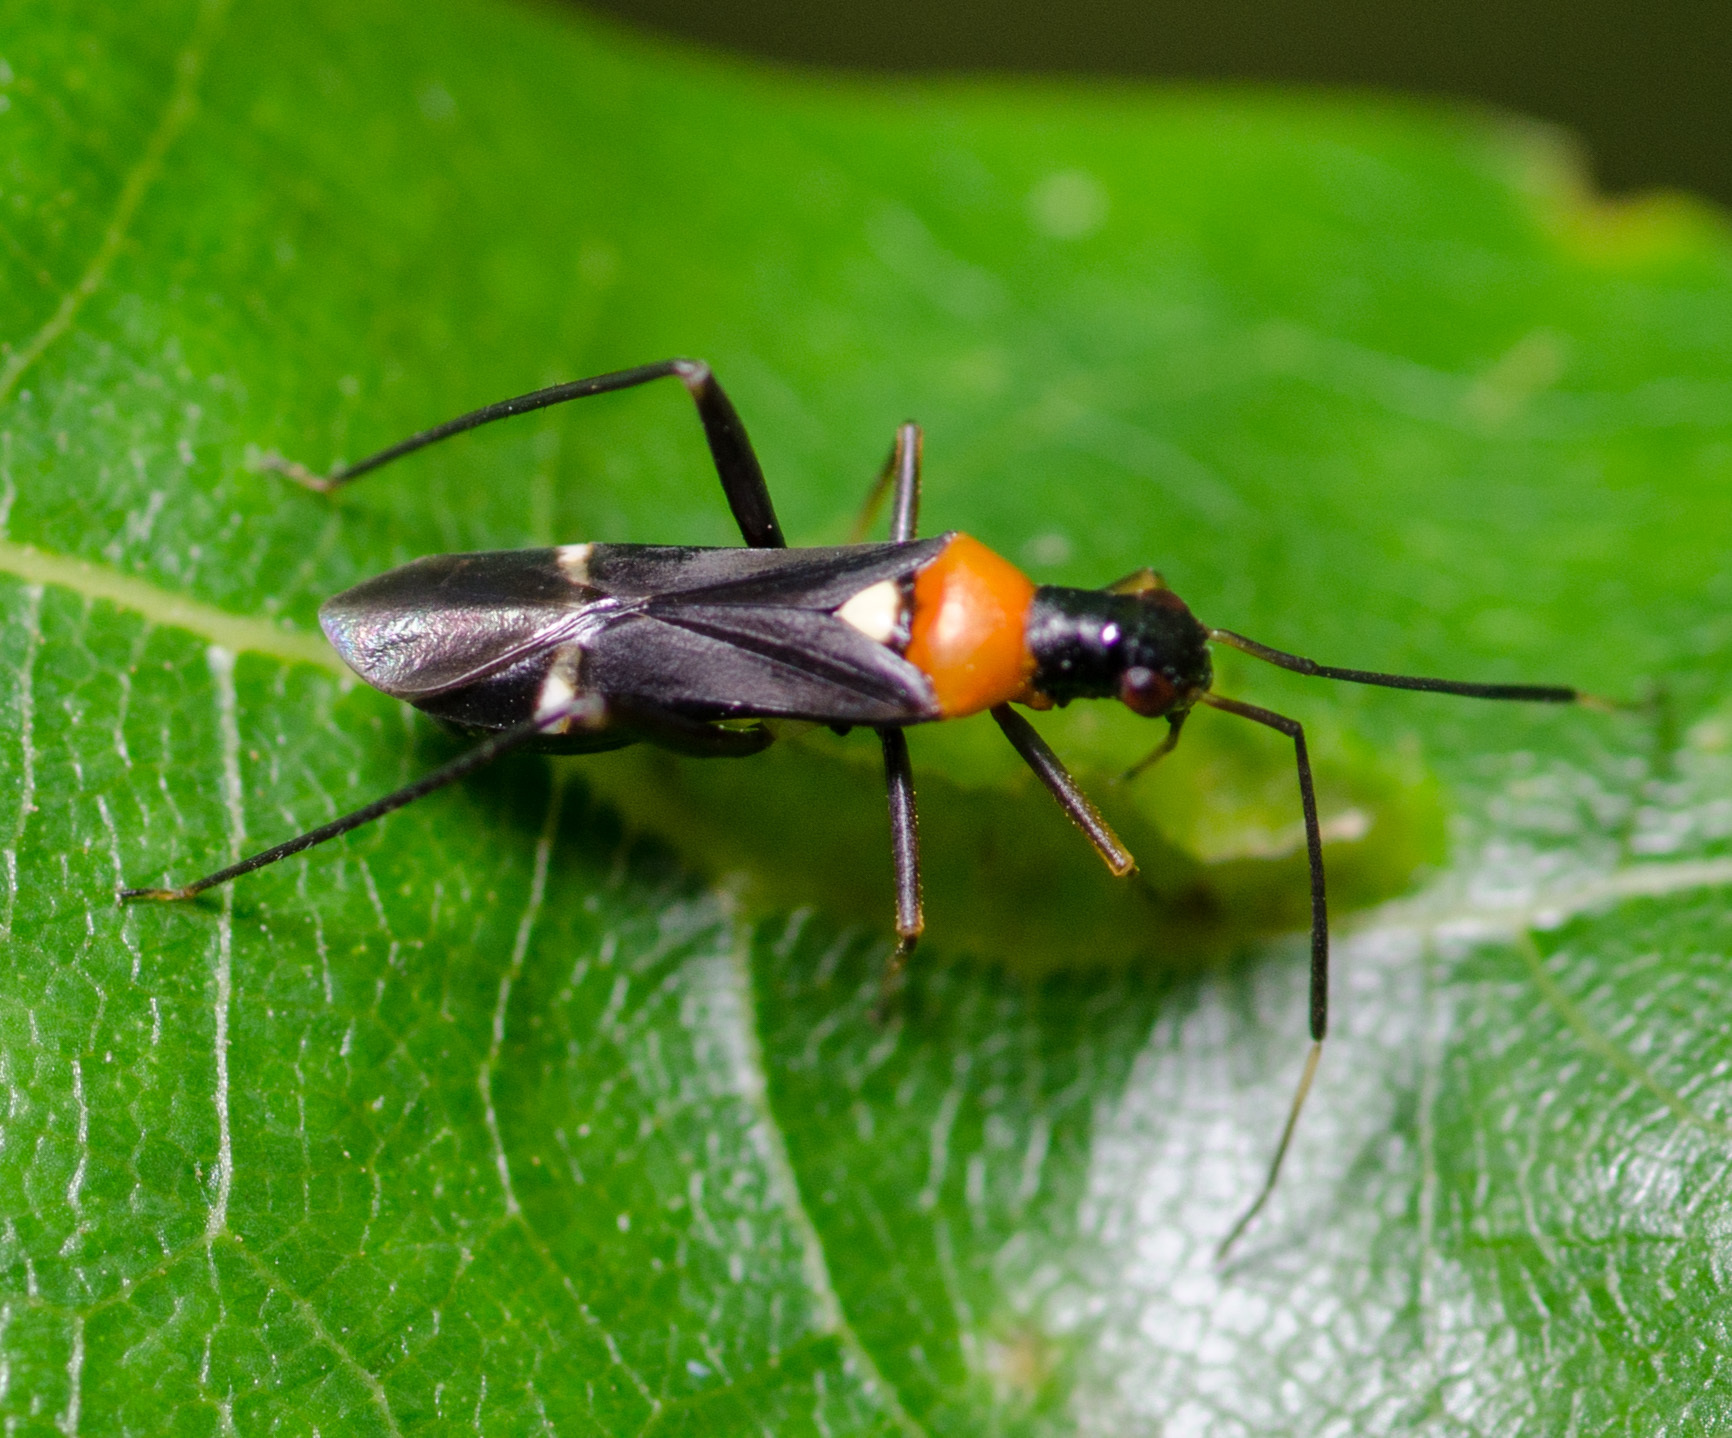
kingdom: Animalia
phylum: Arthropoda
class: Insecta
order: Hemiptera
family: Miridae
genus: Pseudoxenetus
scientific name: Pseudoxenetus regalis
